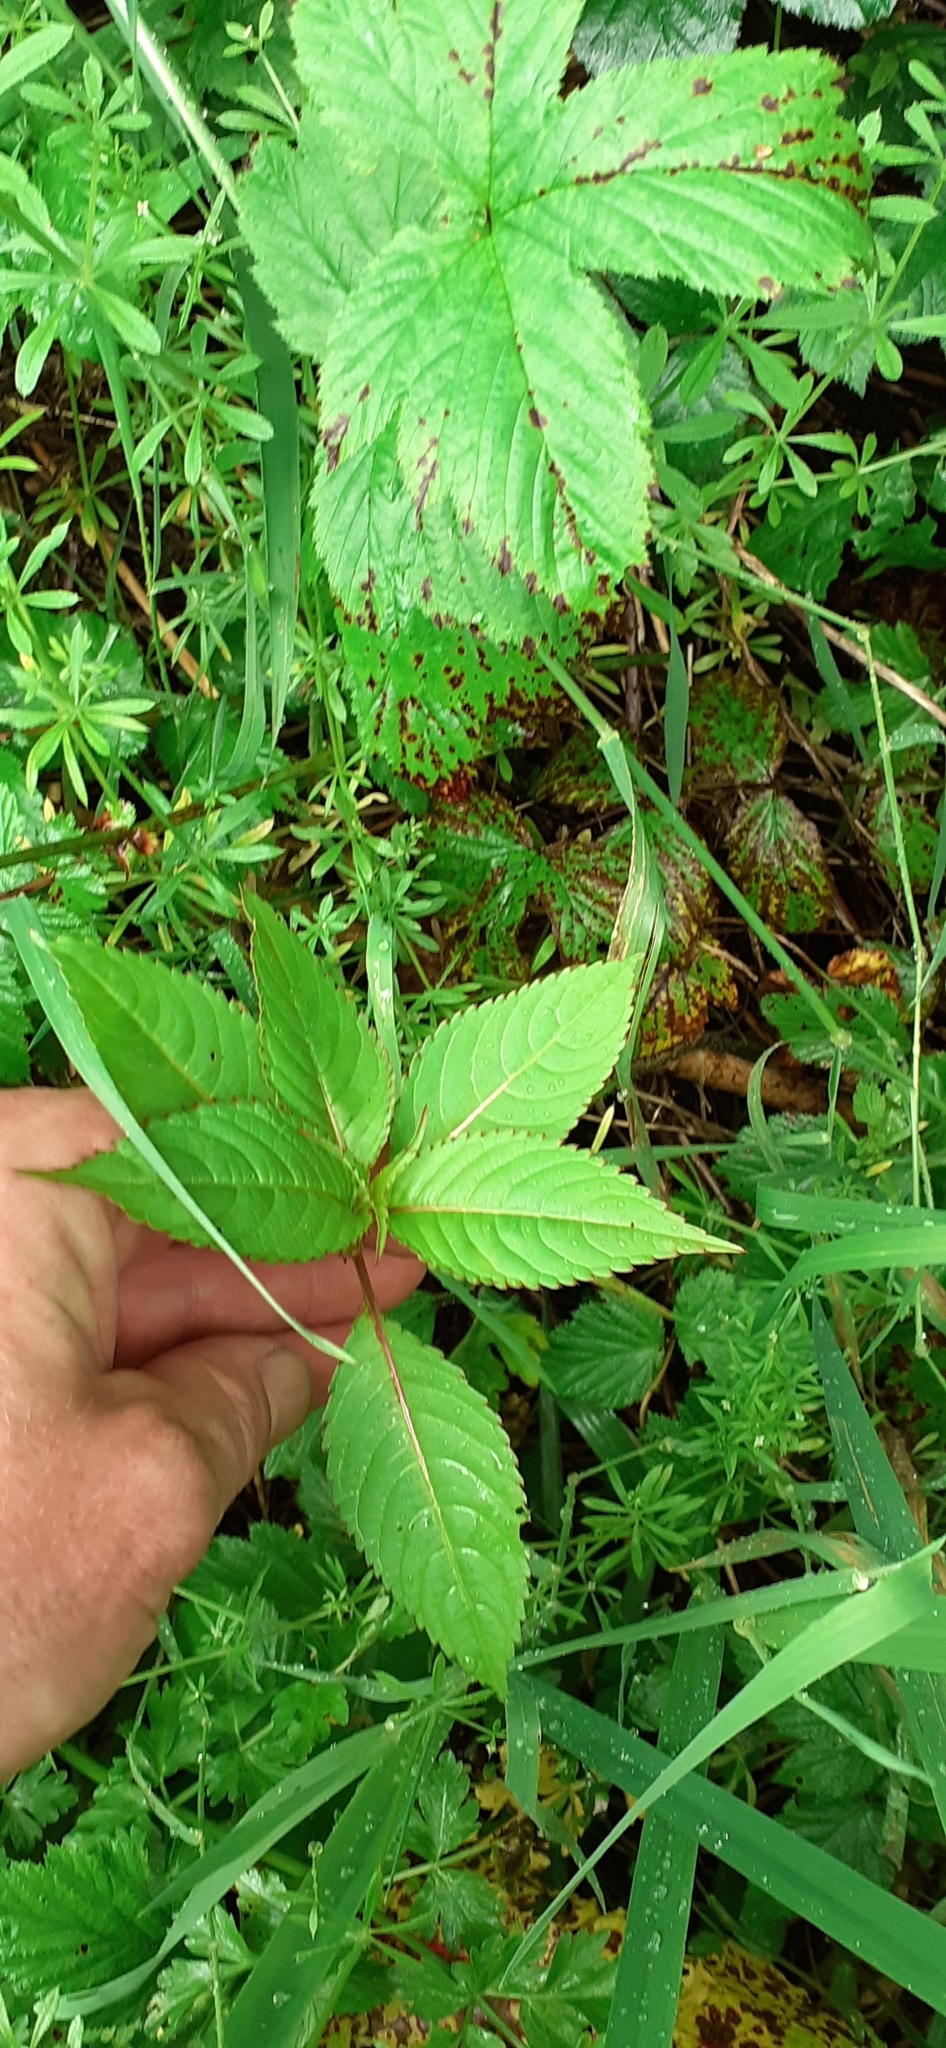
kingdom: Plantae
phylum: Tracheophyta
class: Magnoliopsida
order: Ericales
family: Balsaminaceae
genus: Impatiens
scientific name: Impatiens glandulifera
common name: Himalayan balsam
